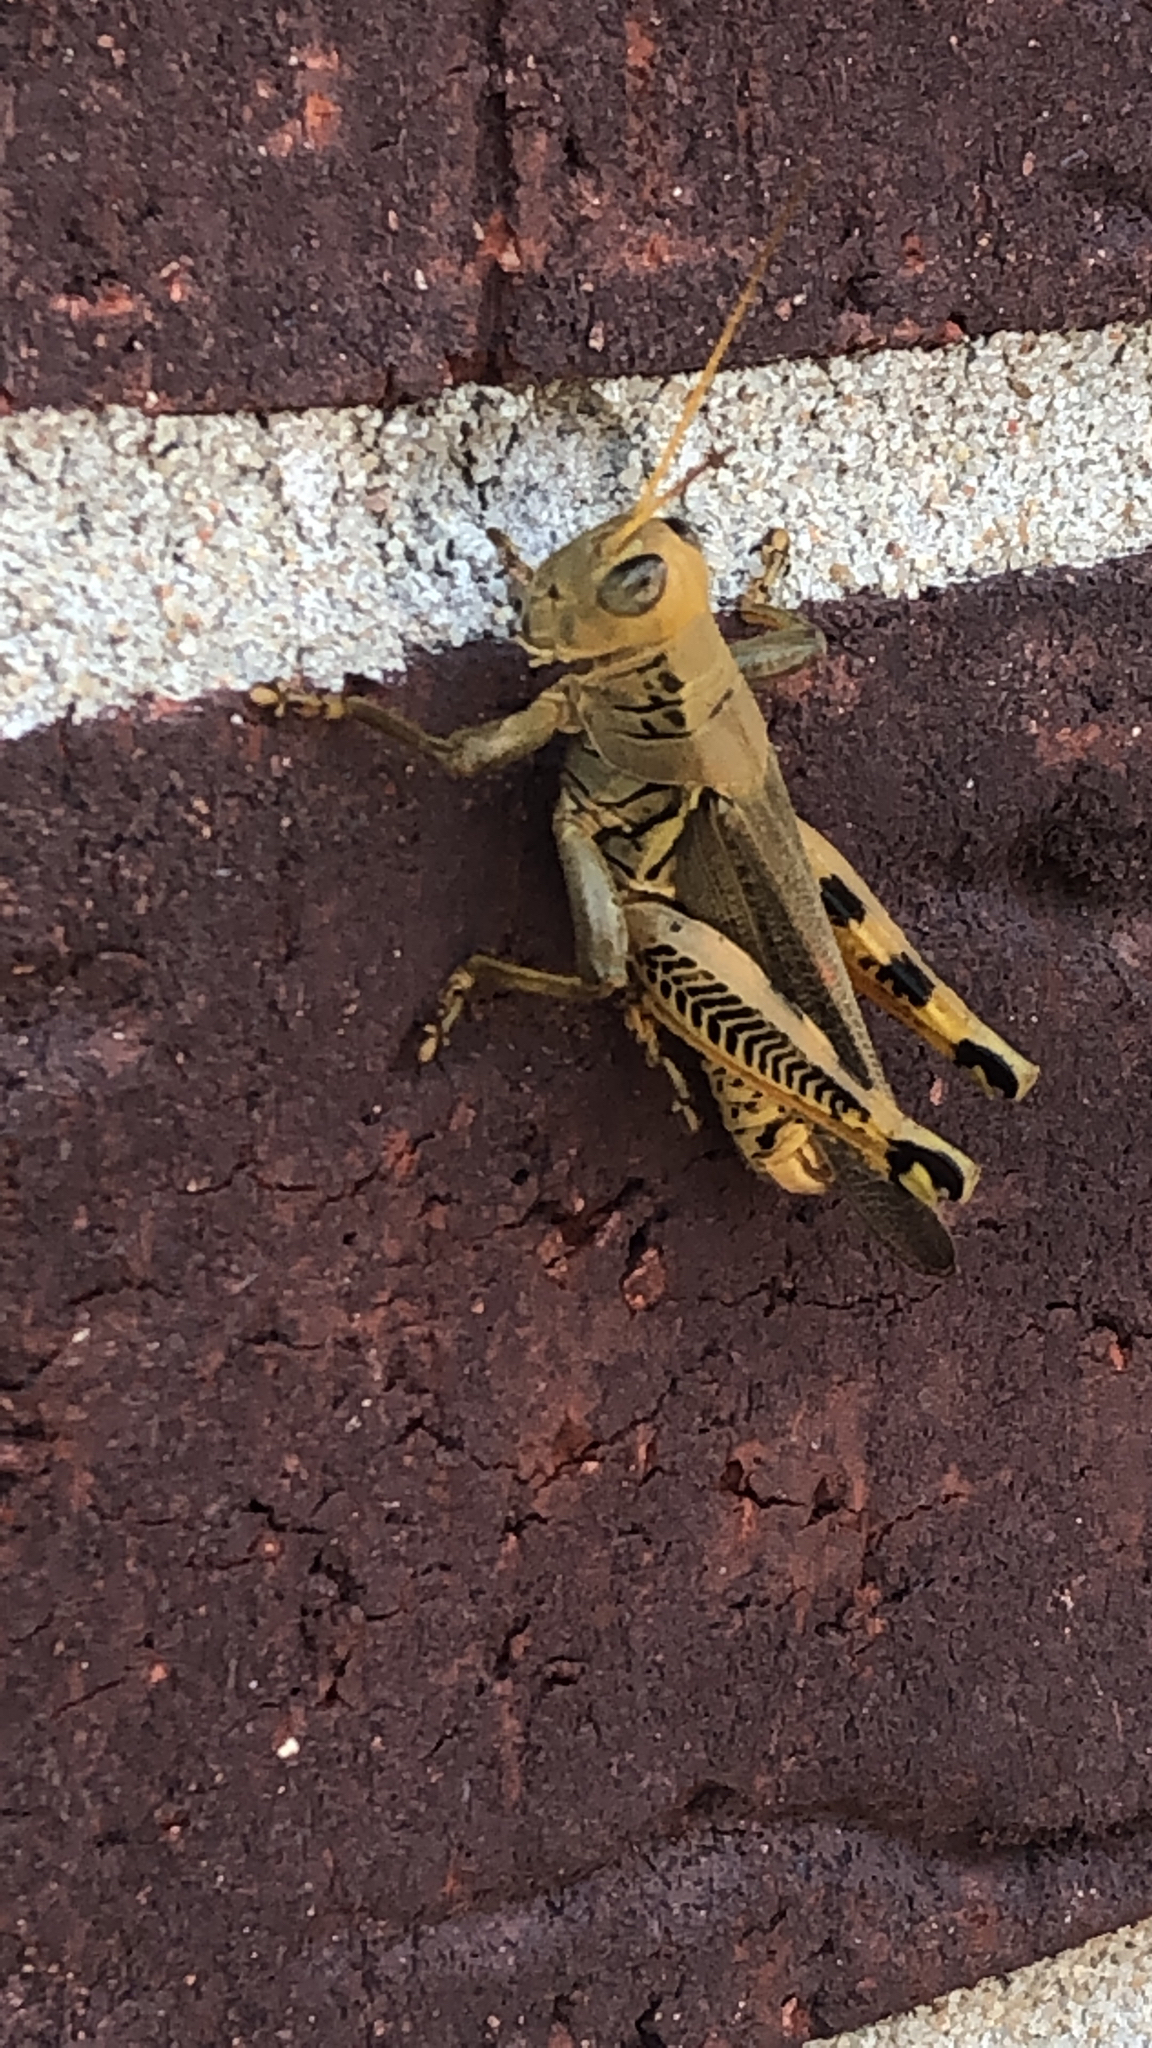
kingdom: Animalia
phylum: Arthropoda
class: Insecta
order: Orthoptera
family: Acrididae
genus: Melanoplus
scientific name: Melanoplus differentialis
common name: Differential grasshopper
